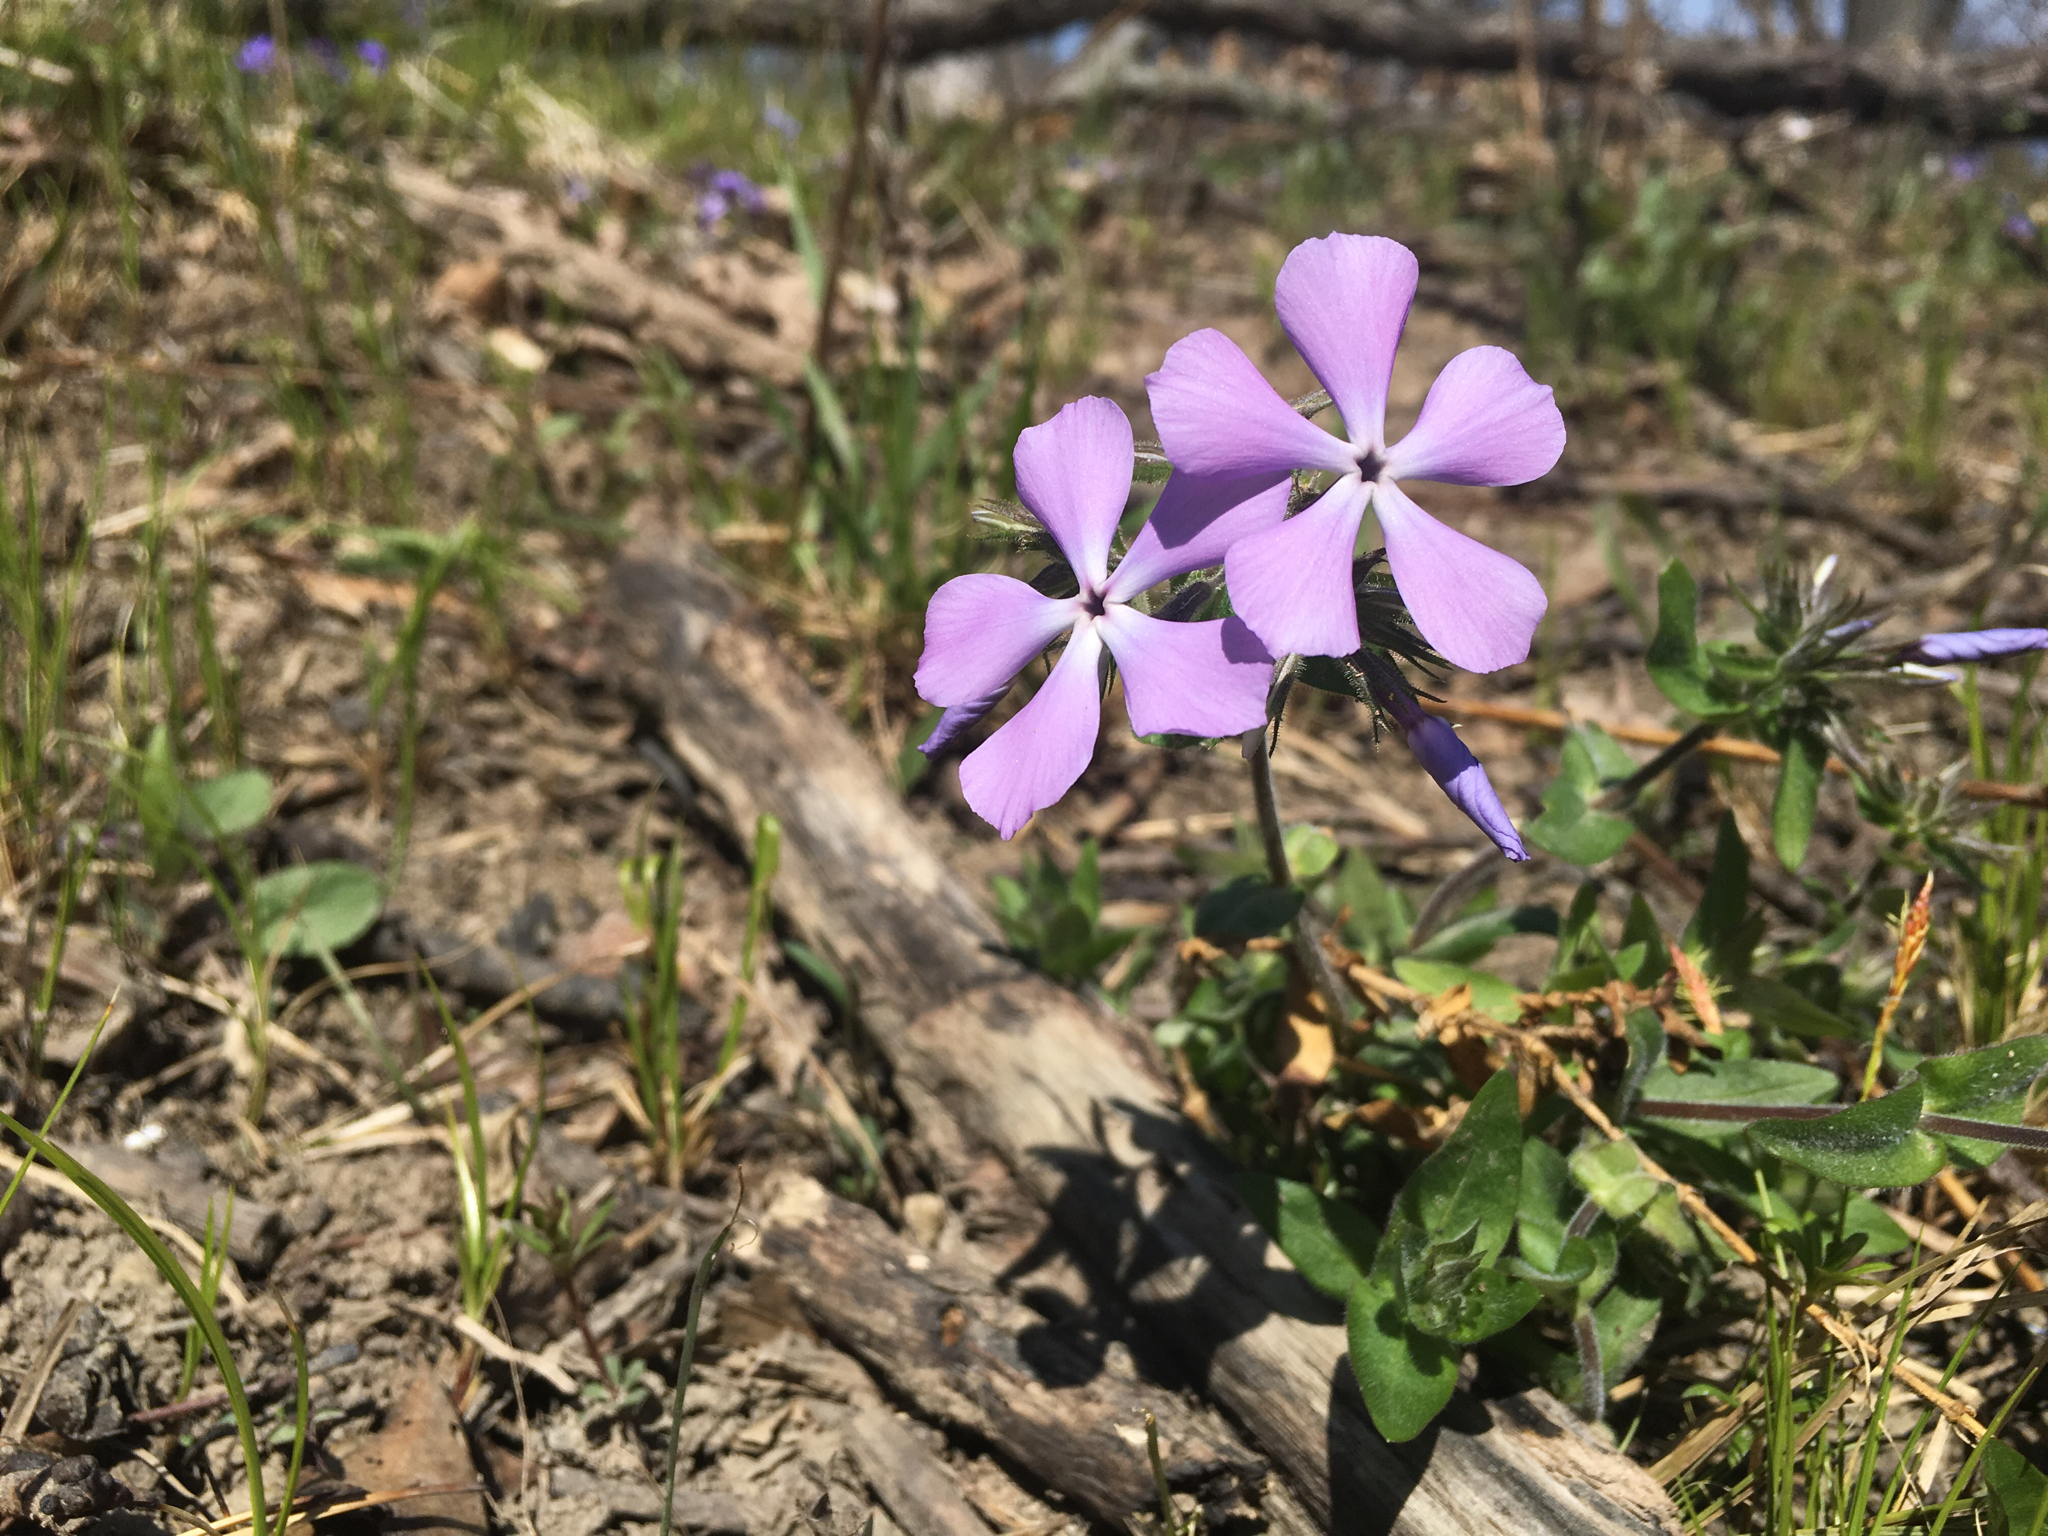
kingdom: Plantae
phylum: Tracheophyta
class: Magnoliopsida
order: Ericales
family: Polemoniaceae
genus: Phlox
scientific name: Phlox divaricata
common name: Blue phlox
